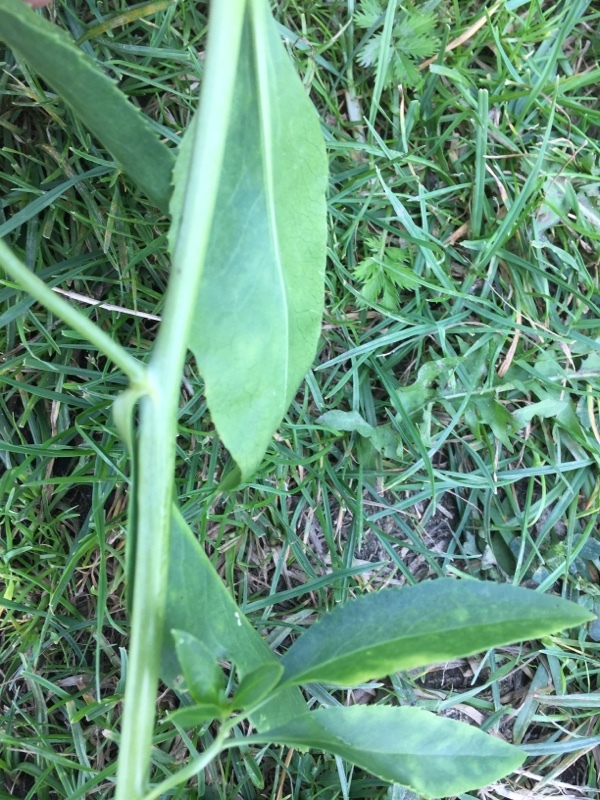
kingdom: Plantae
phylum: Tracheophyta
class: Magnoliopsida
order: Brassicales
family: Brassicaceae
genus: Lepidium
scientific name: Lepidium latifolium
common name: Dittander
